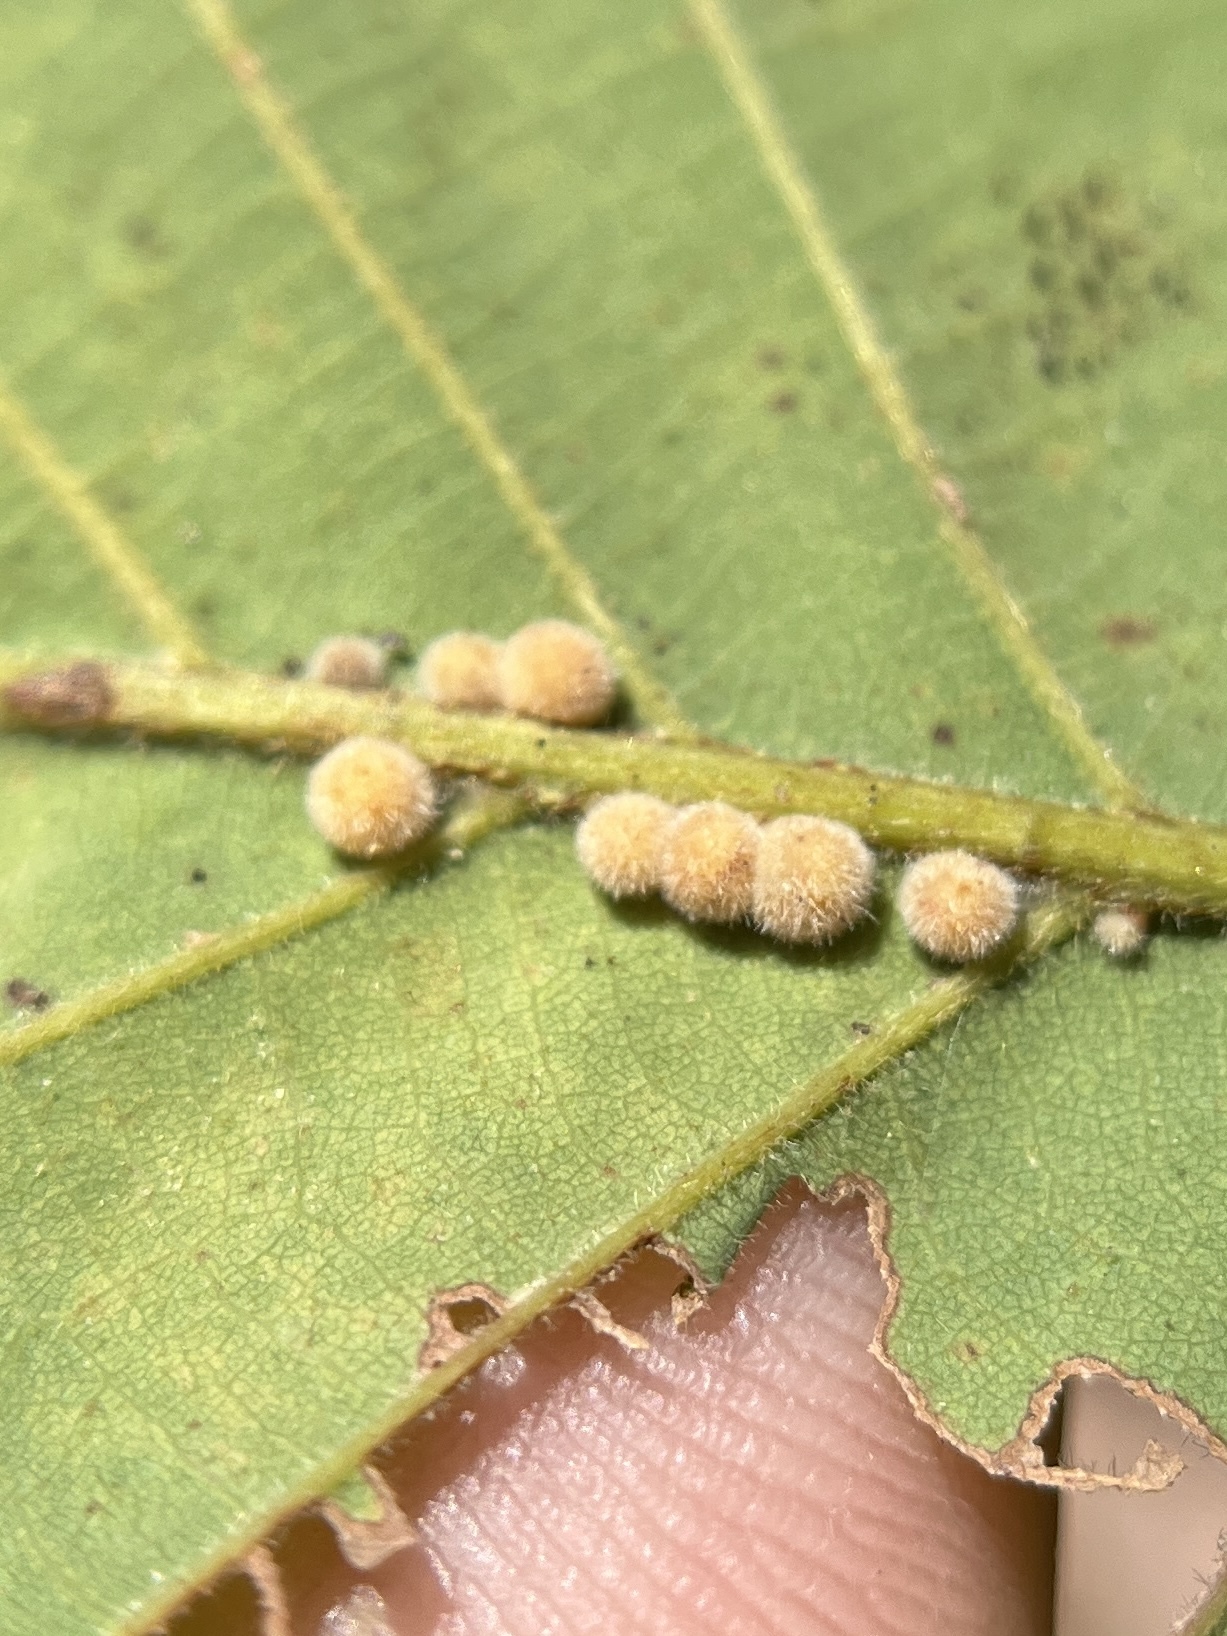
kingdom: Animalia
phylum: Arthropoda
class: Insecta
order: Hymenoptera
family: Cynipidae
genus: Andricus
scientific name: Andricus
